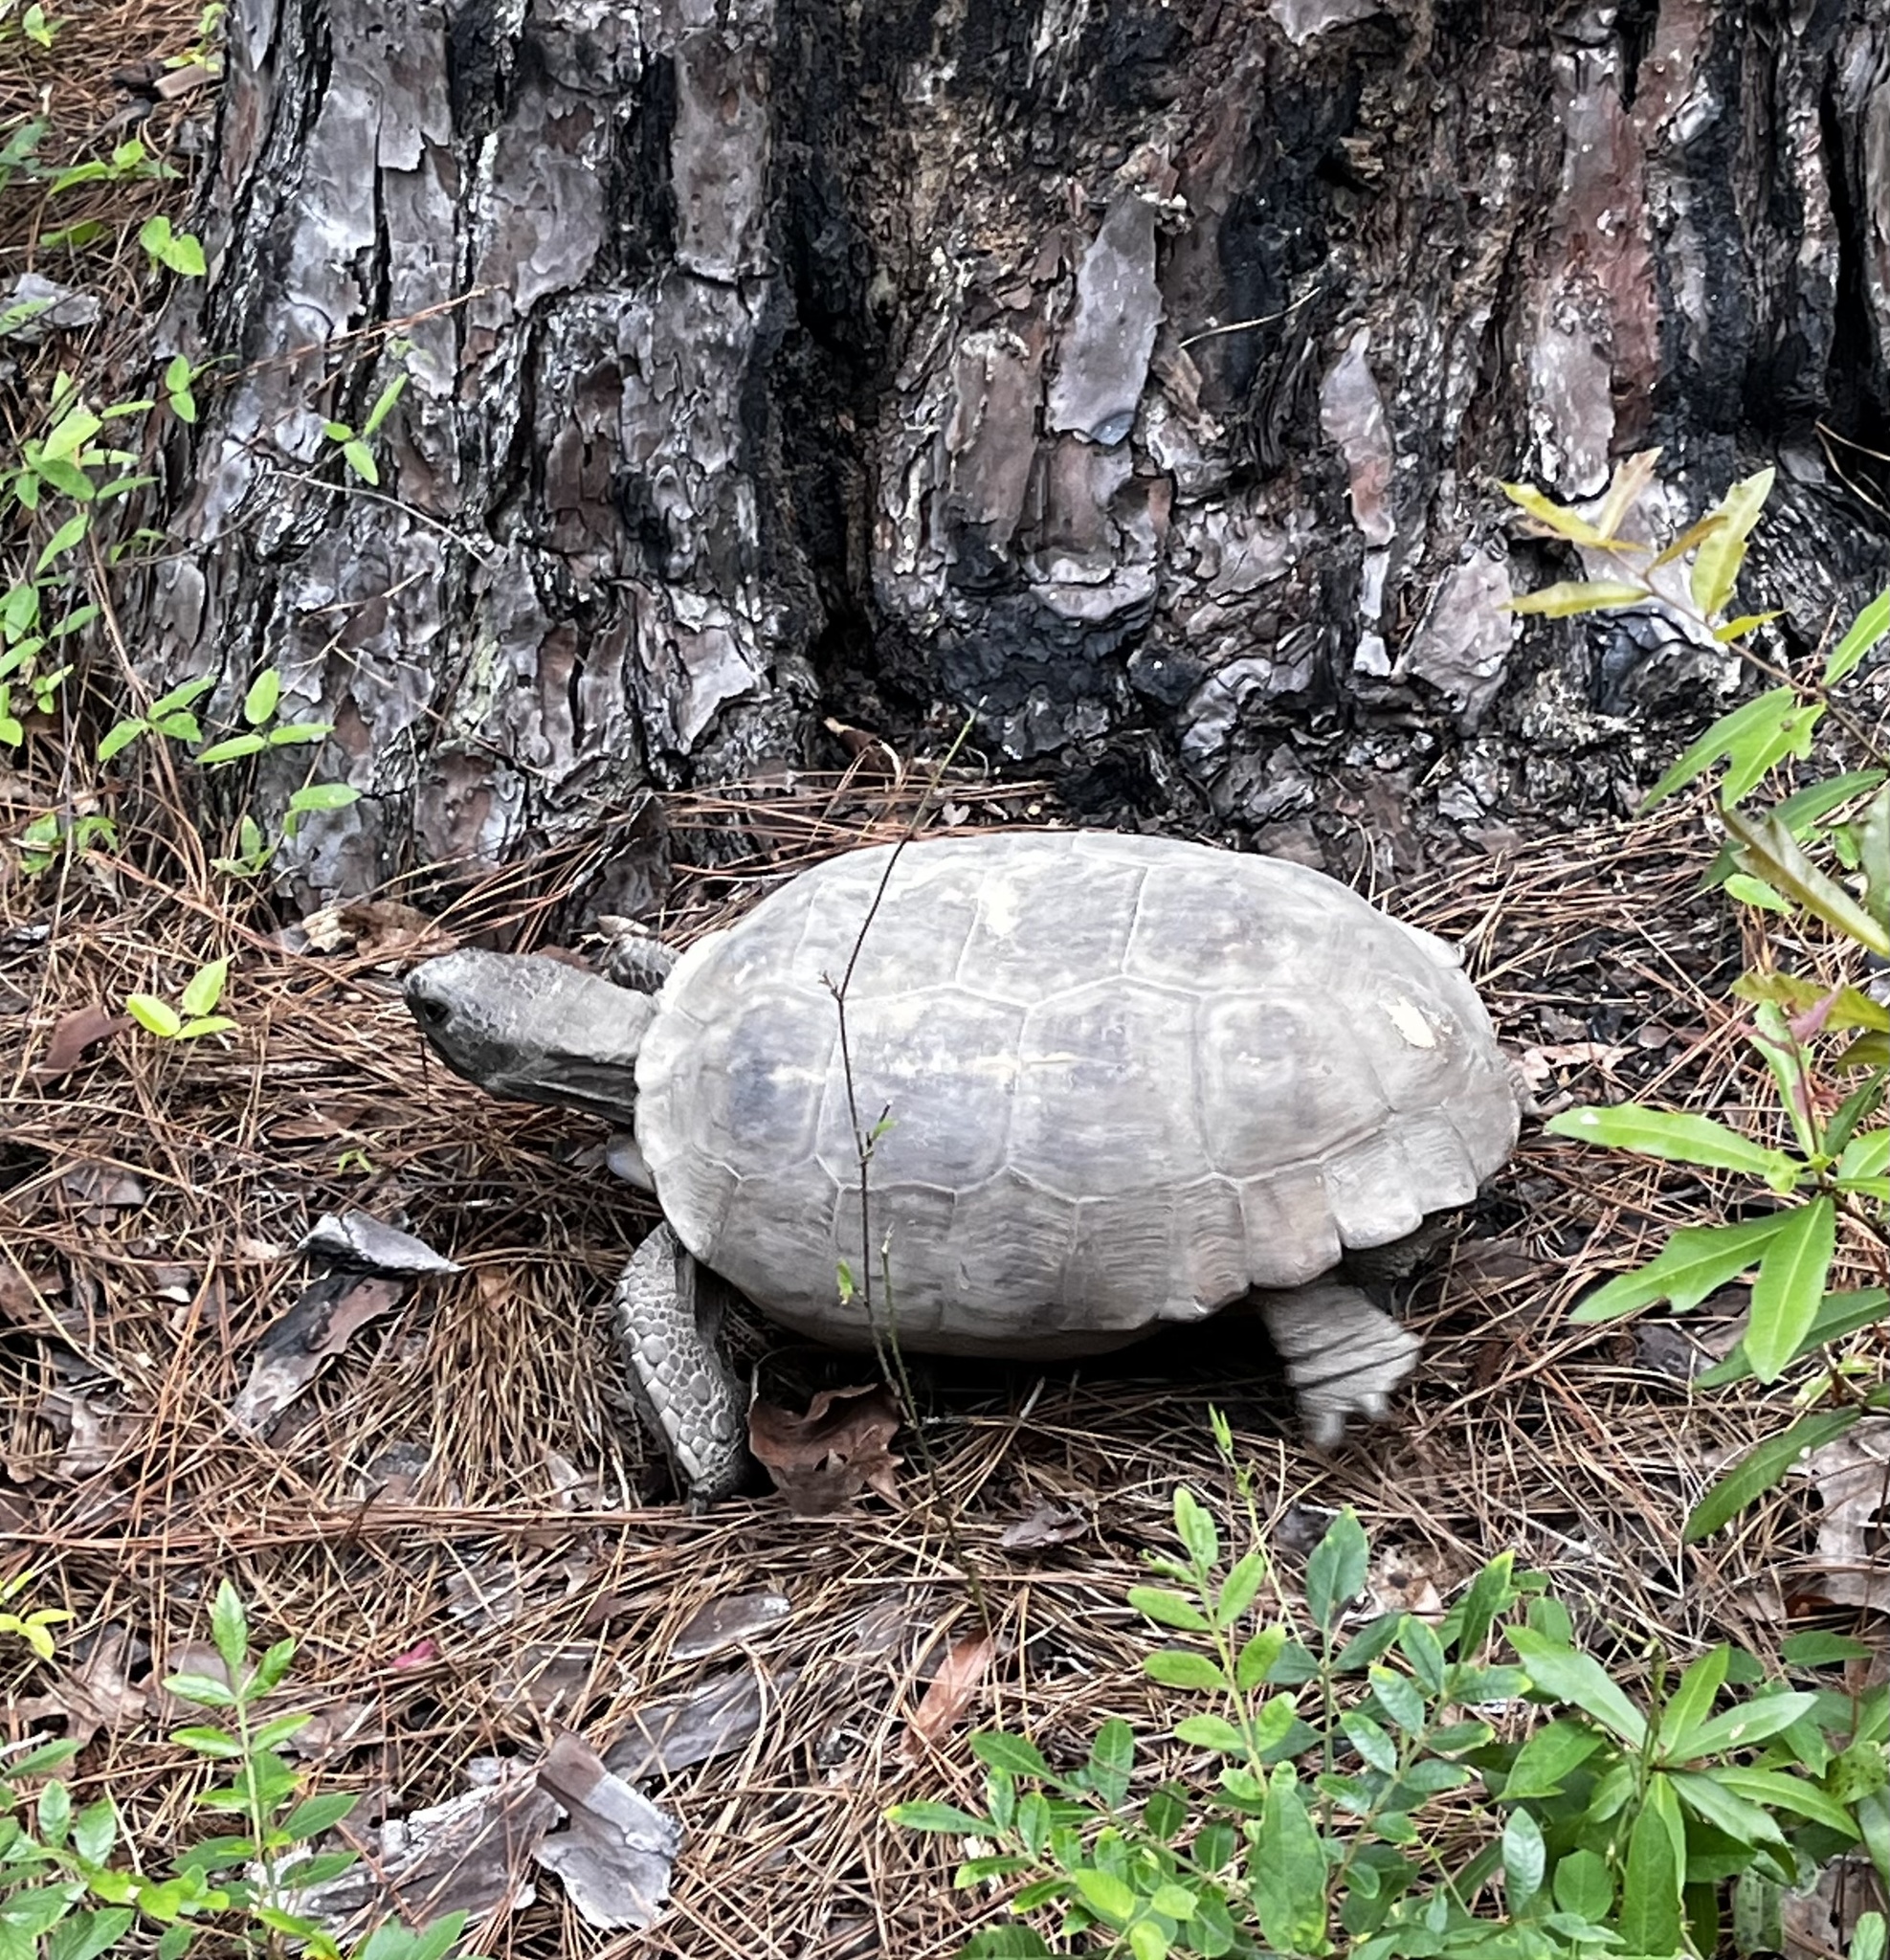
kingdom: Animalia
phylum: Chordata
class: Testudines
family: Testudinidae
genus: Gopherus
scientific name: Gopherus polyphemus
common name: Florida gopher tortoise
